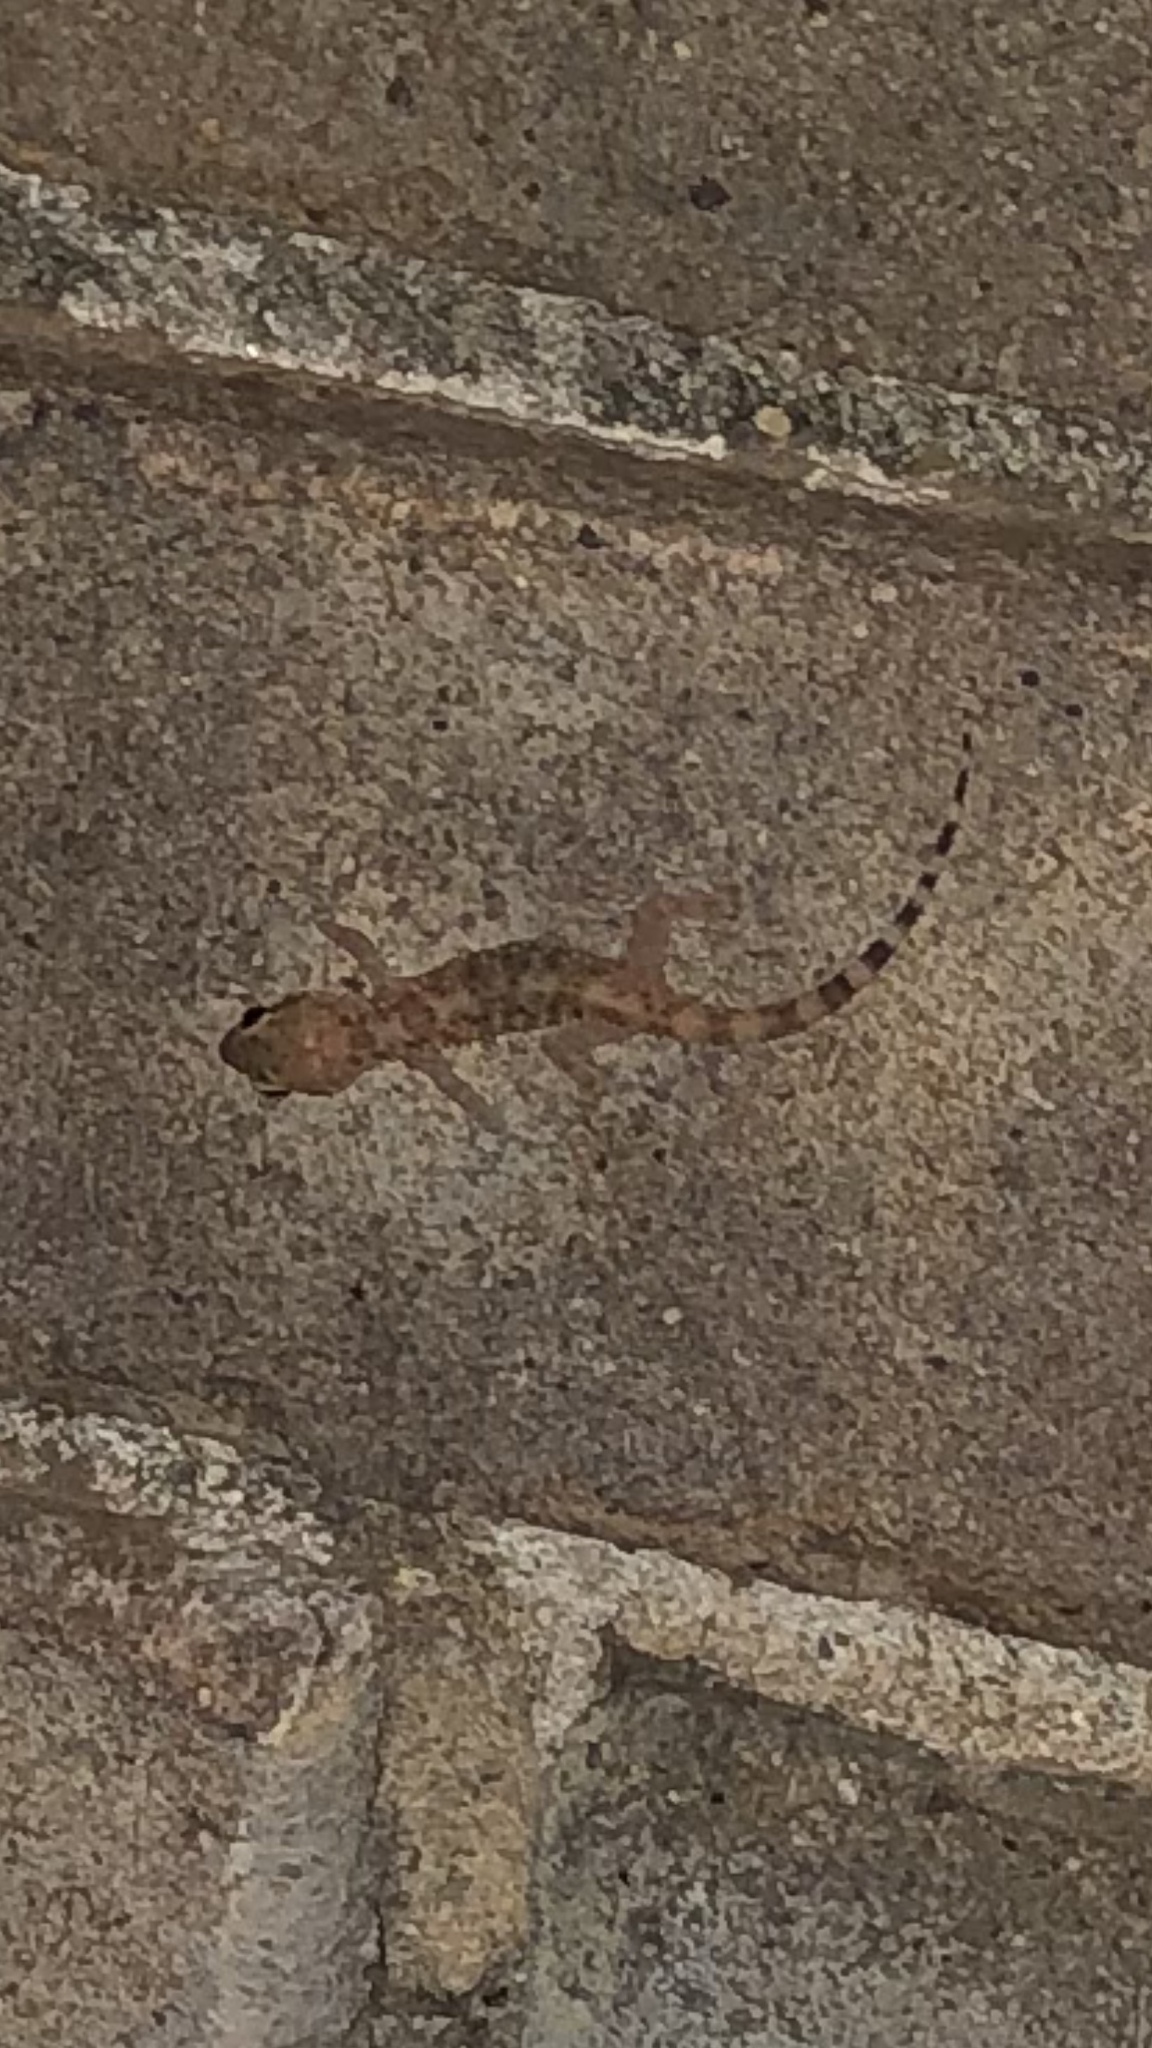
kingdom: Animalia
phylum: Chordata
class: Squamata
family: Gekkonidae
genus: Hemidactylus
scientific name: Hemidactylus turcicus
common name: Turkish gecko
